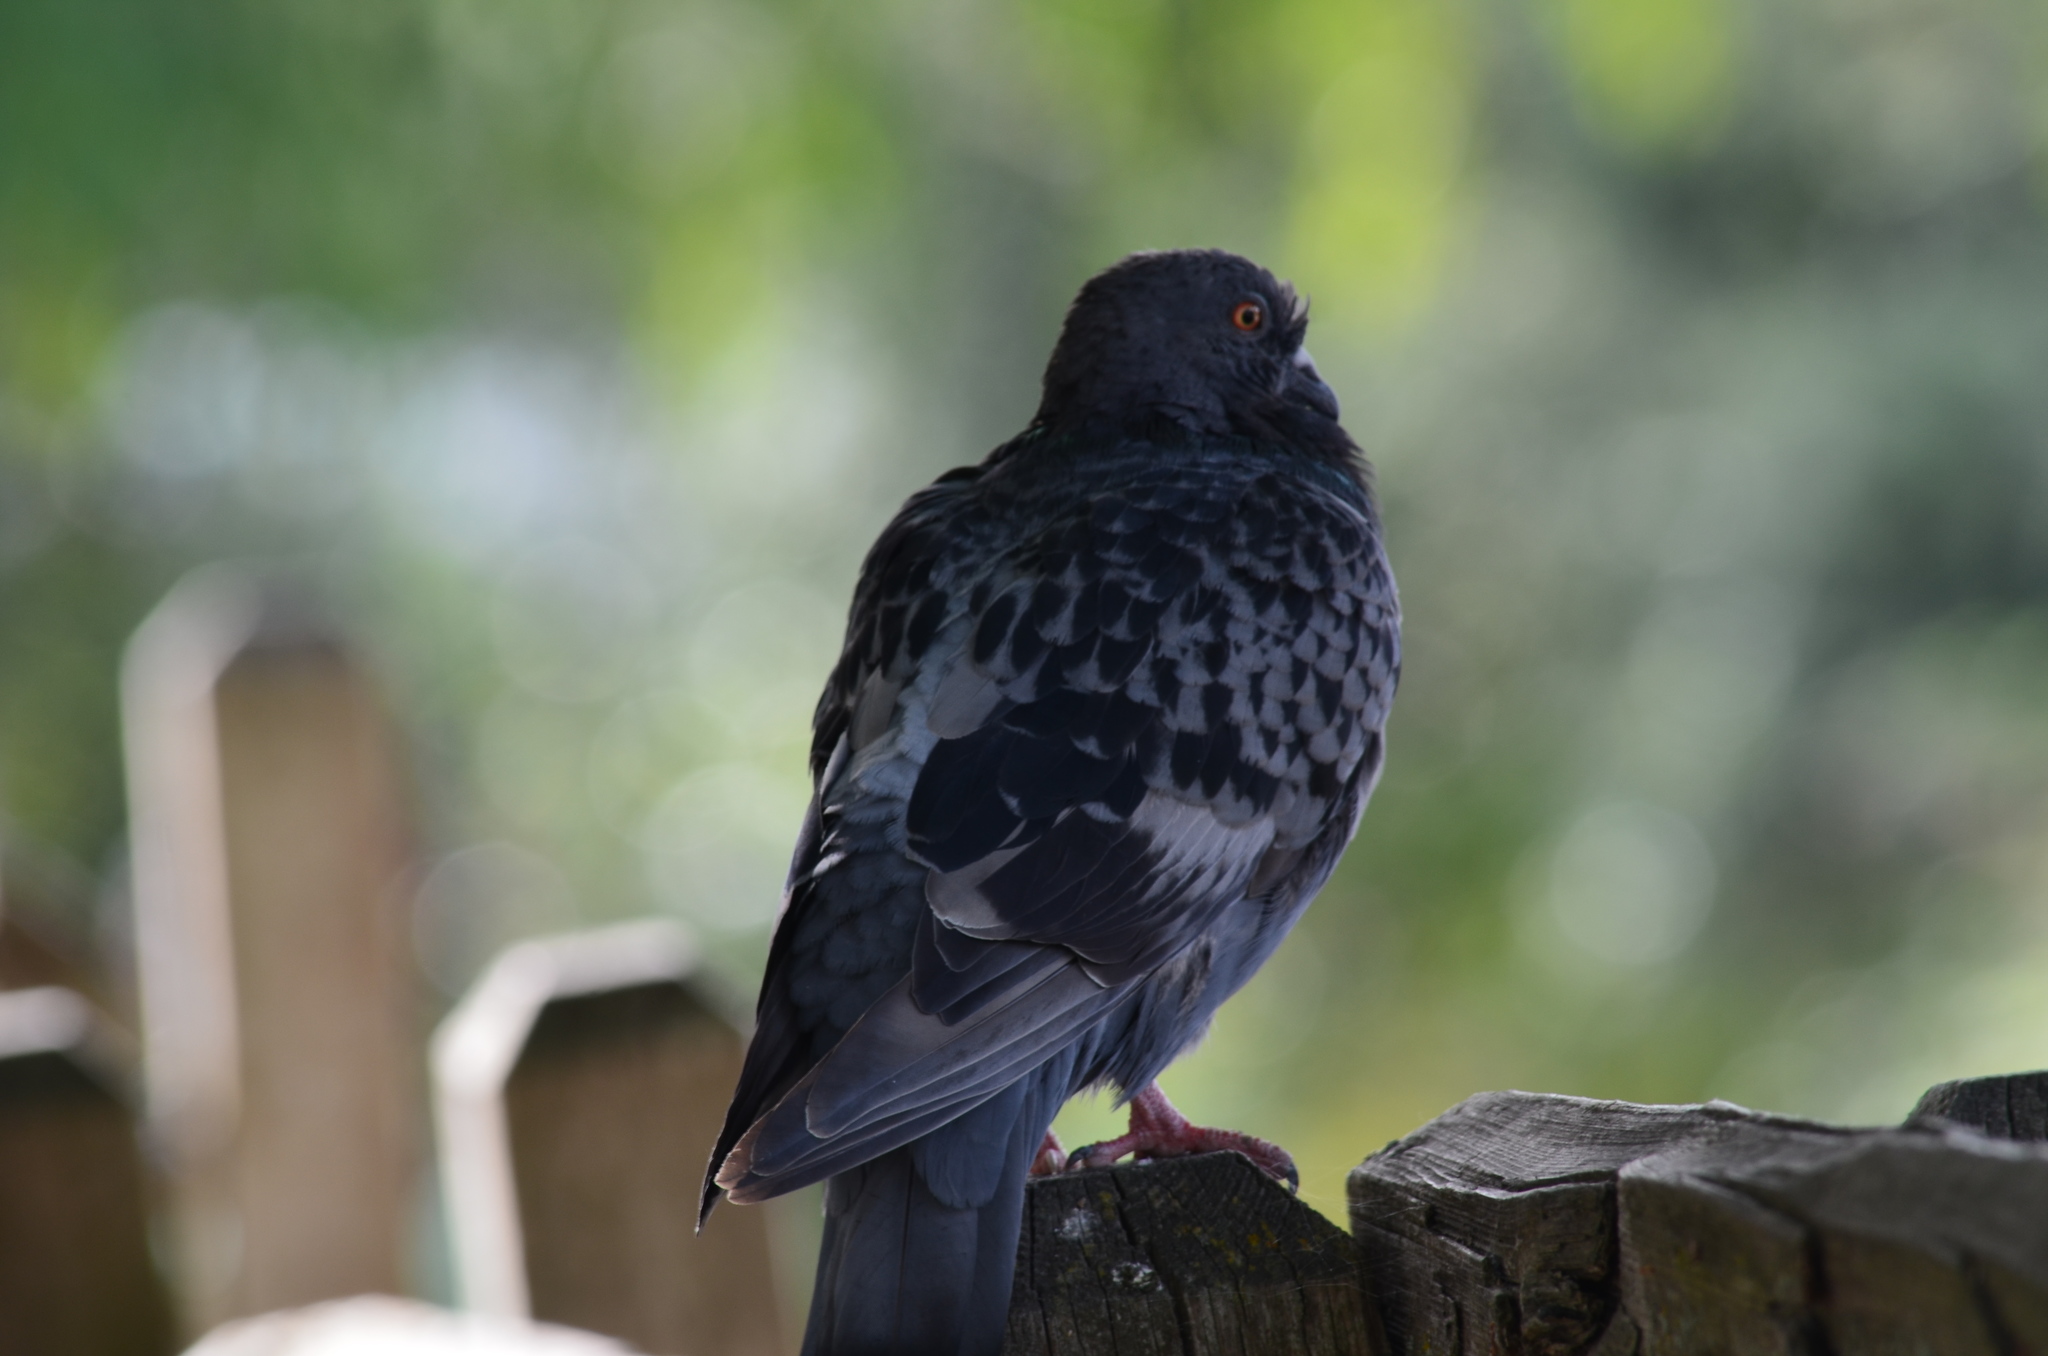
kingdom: Animalia
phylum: Chordata
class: Aves
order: Columbiformes
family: Columbidae
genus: Columba
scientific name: Columba livia
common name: Rock pigeon
